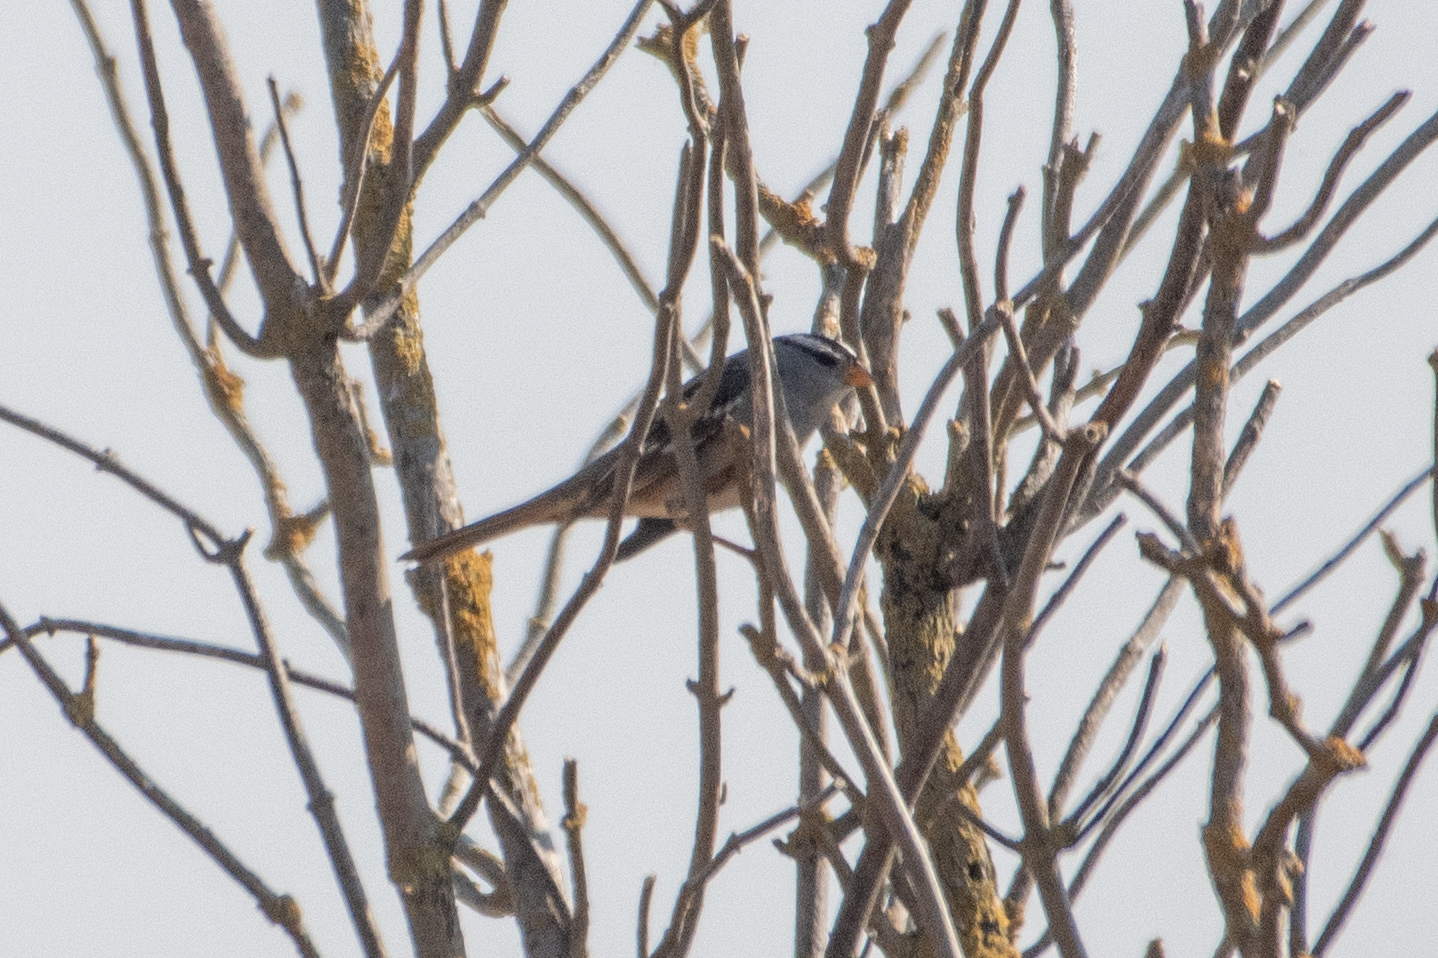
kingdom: Animalia
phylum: Chordata
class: Aves
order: Passeriformes
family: Passerellidae
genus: Zonotrichia
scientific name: Zonotrichia leucophrys
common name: White-crowned sparrow
